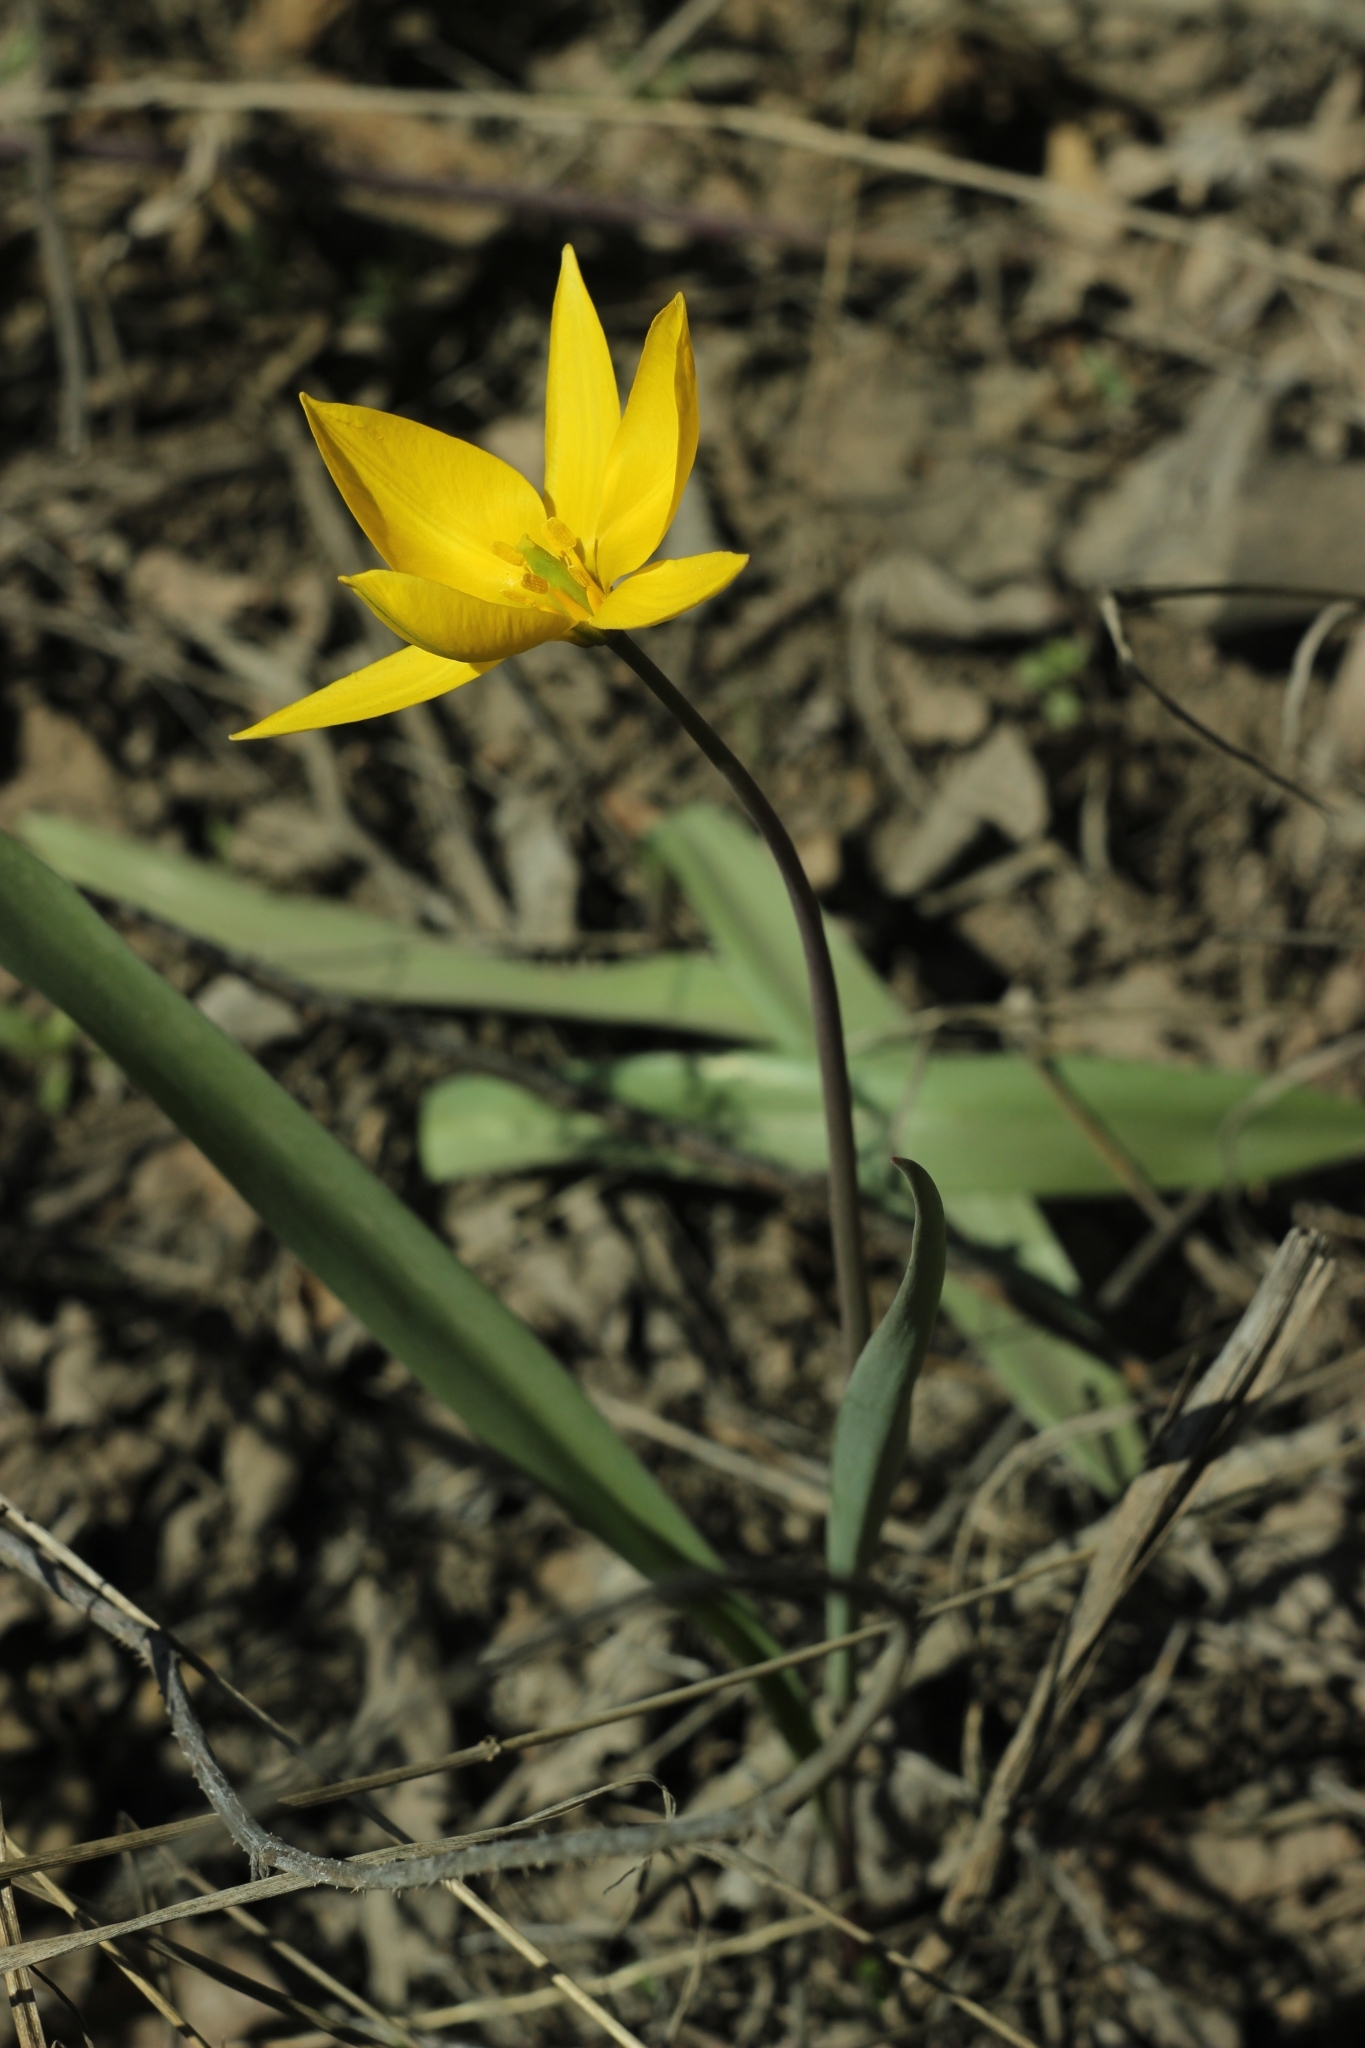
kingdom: Plantae
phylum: Tracheophyta
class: Liliopsida
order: Liliales
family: Liliaceae
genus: Tulipa
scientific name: Tulipa sylvestris
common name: Wild tulip
